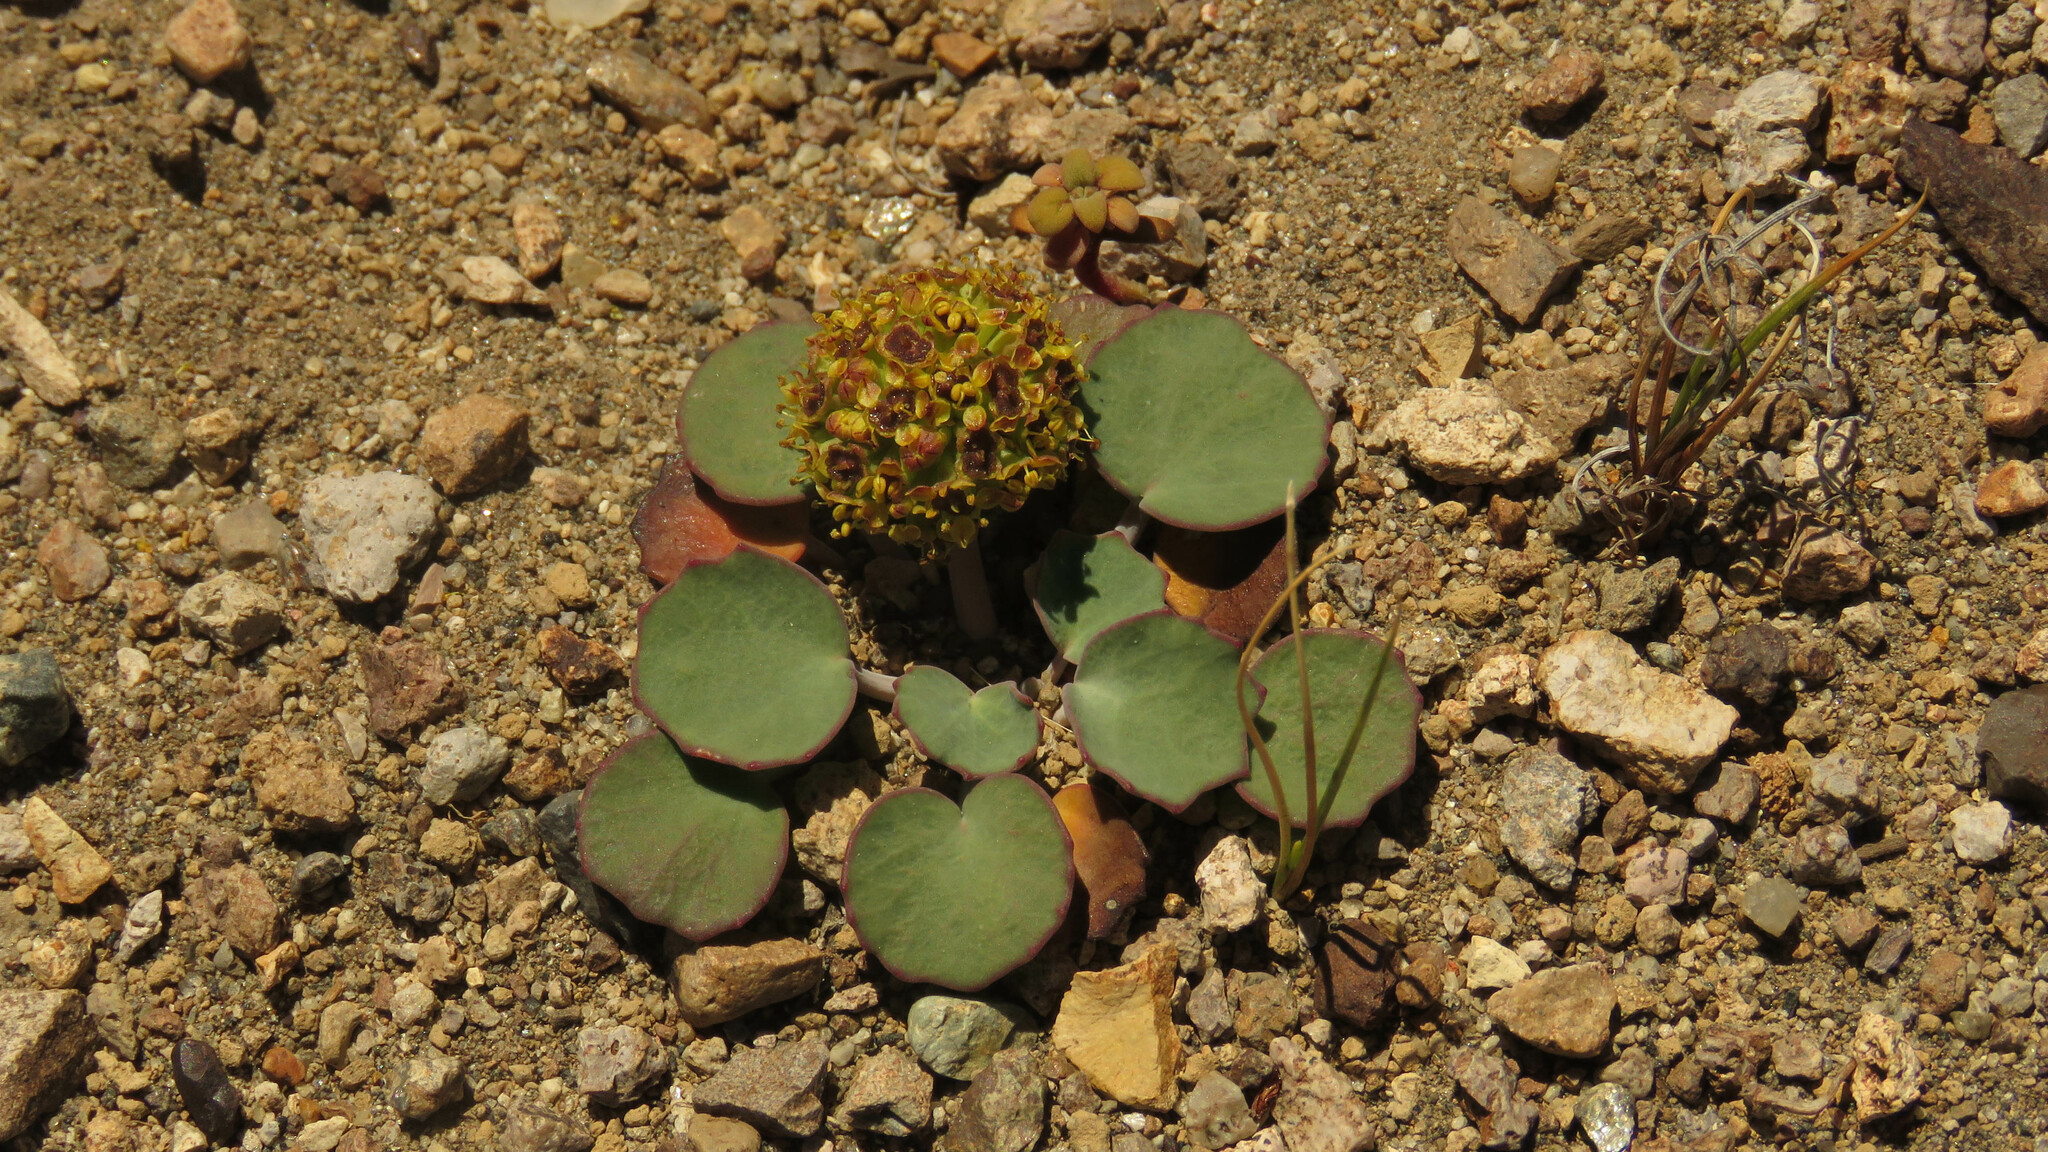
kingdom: Plantae
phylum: Tracheophyta
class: Magnoliopsida
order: Apiales
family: Apiaceae
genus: Pozoa
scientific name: Pozoa coriacea
